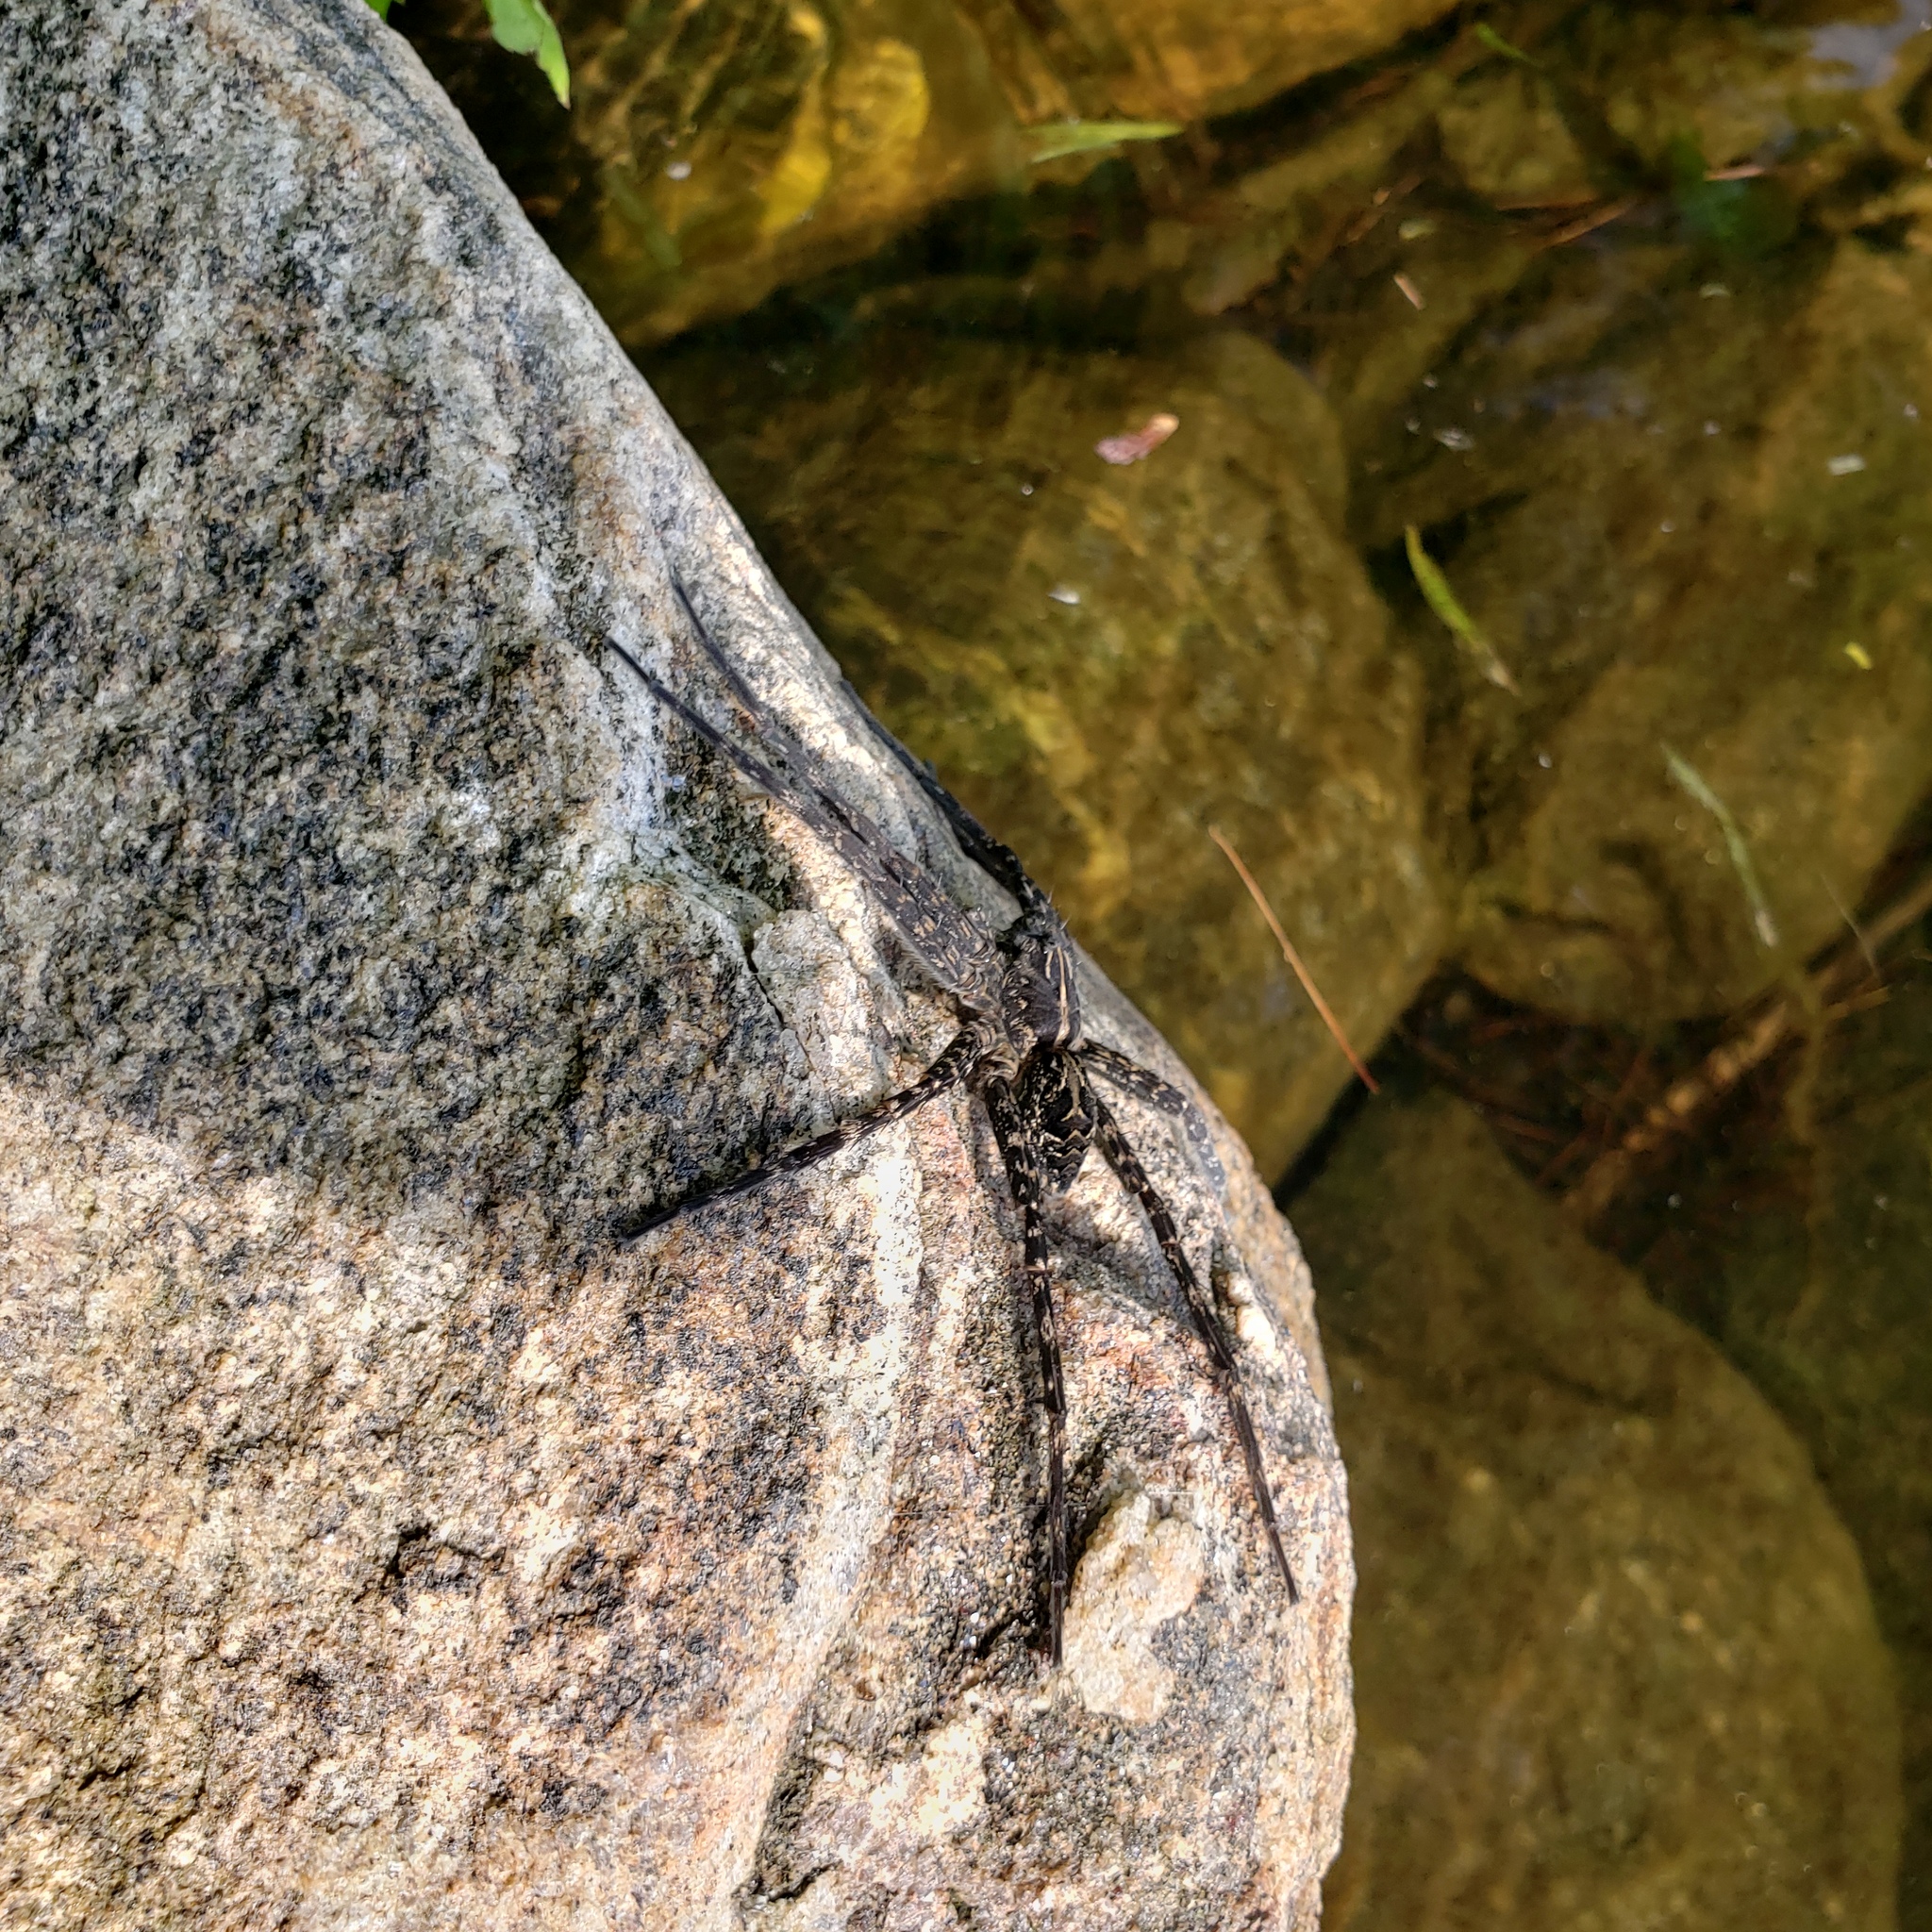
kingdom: Animalia
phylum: Arthropoda
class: Arachnida
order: Araneae
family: Pisauridae
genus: Dolomedes
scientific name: Dolomedes scriptus
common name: Striped fishing spider
